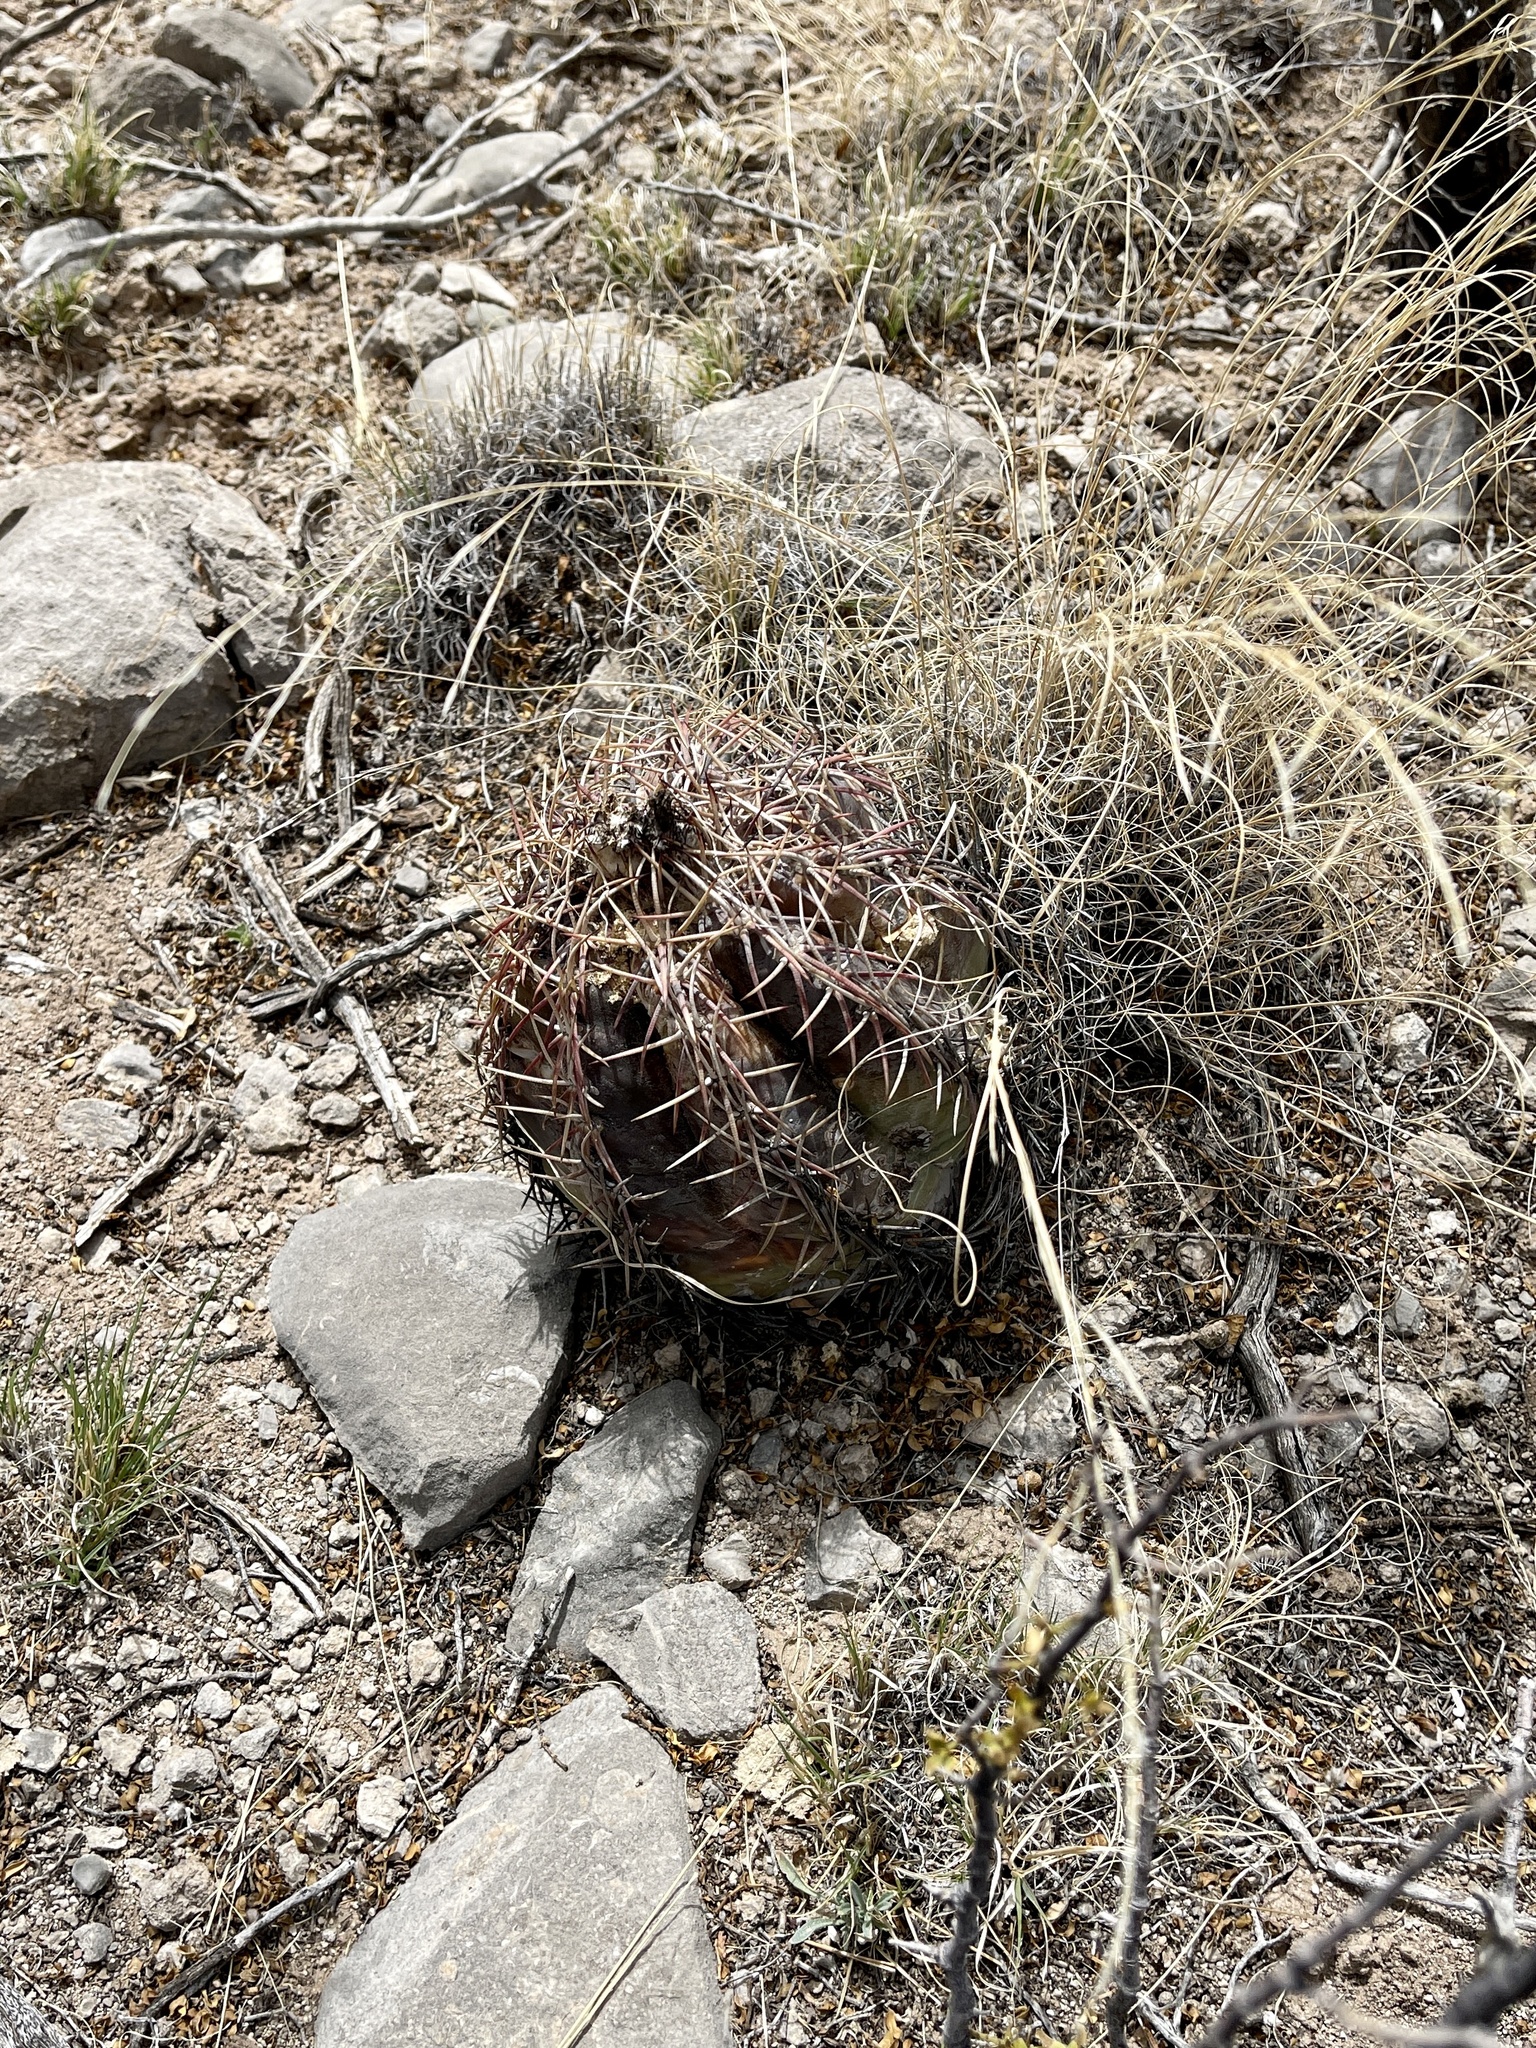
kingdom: Plantae
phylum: Tracheophyta
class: Magnoliopsida
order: Caryophyllales
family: Cactaceae
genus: Echinocactus
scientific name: Echinocactus horizonthalonius
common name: Devilshead
